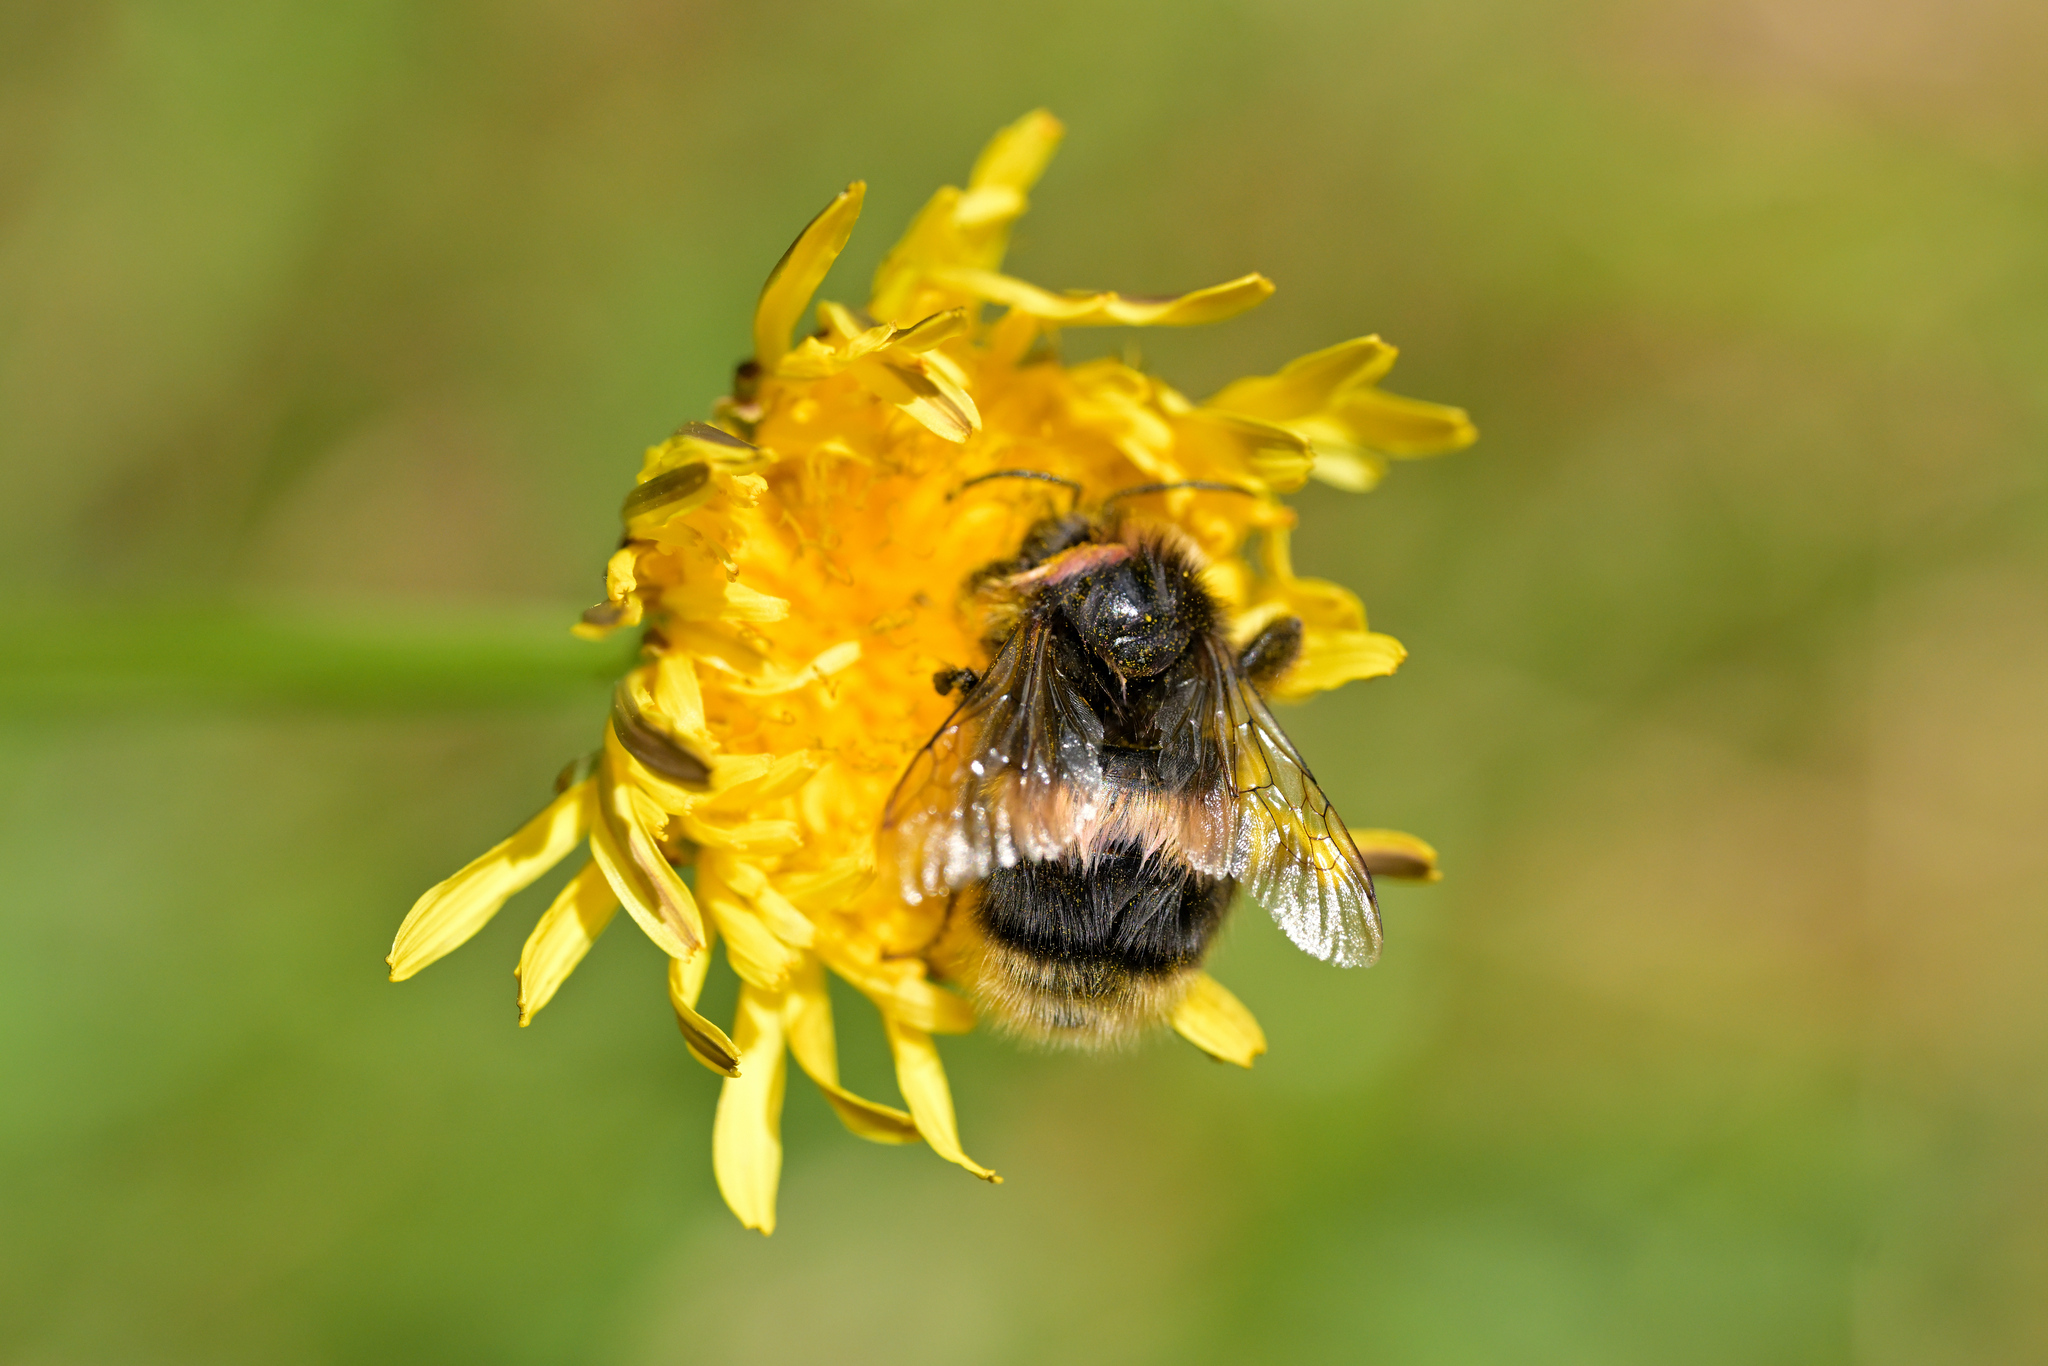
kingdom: Animalia
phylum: Arthropoda
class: Insecta
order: Hymenoptera
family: Apidae
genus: Bombus
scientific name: Bombus terrestris
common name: Buff-tailed bumblebee
